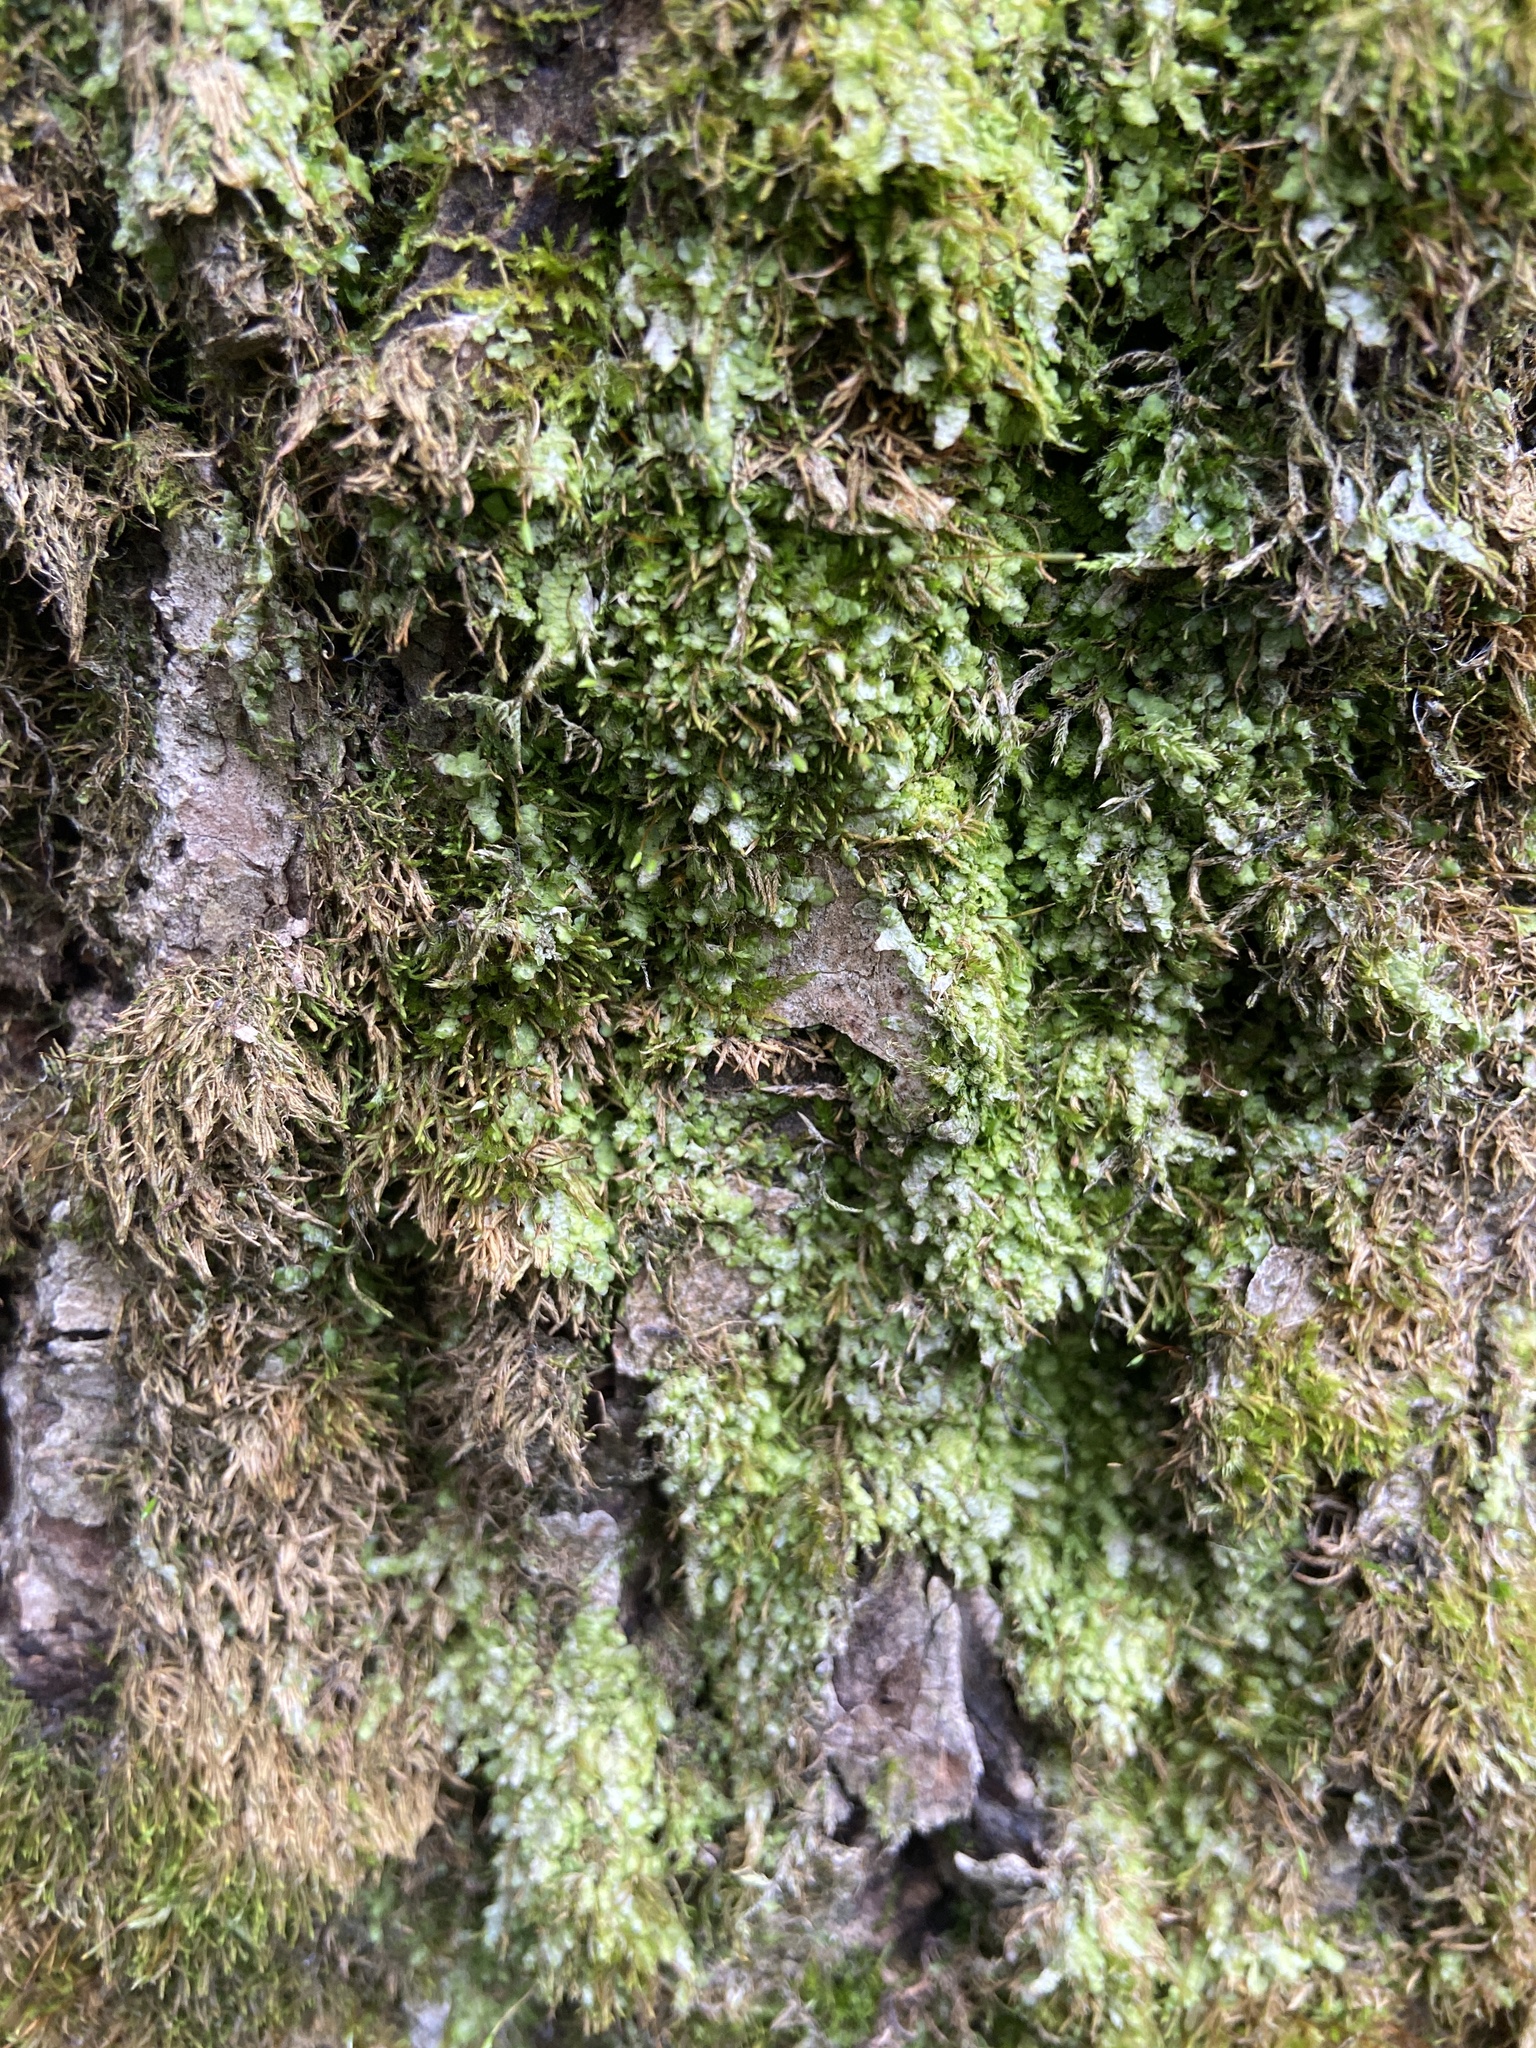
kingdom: Plantae
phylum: Marchantiophyta
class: Jungermanniopsida
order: Porellales
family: Radulaceae
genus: Radula
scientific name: Radula complanata
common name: Flat-leaved scalewort
